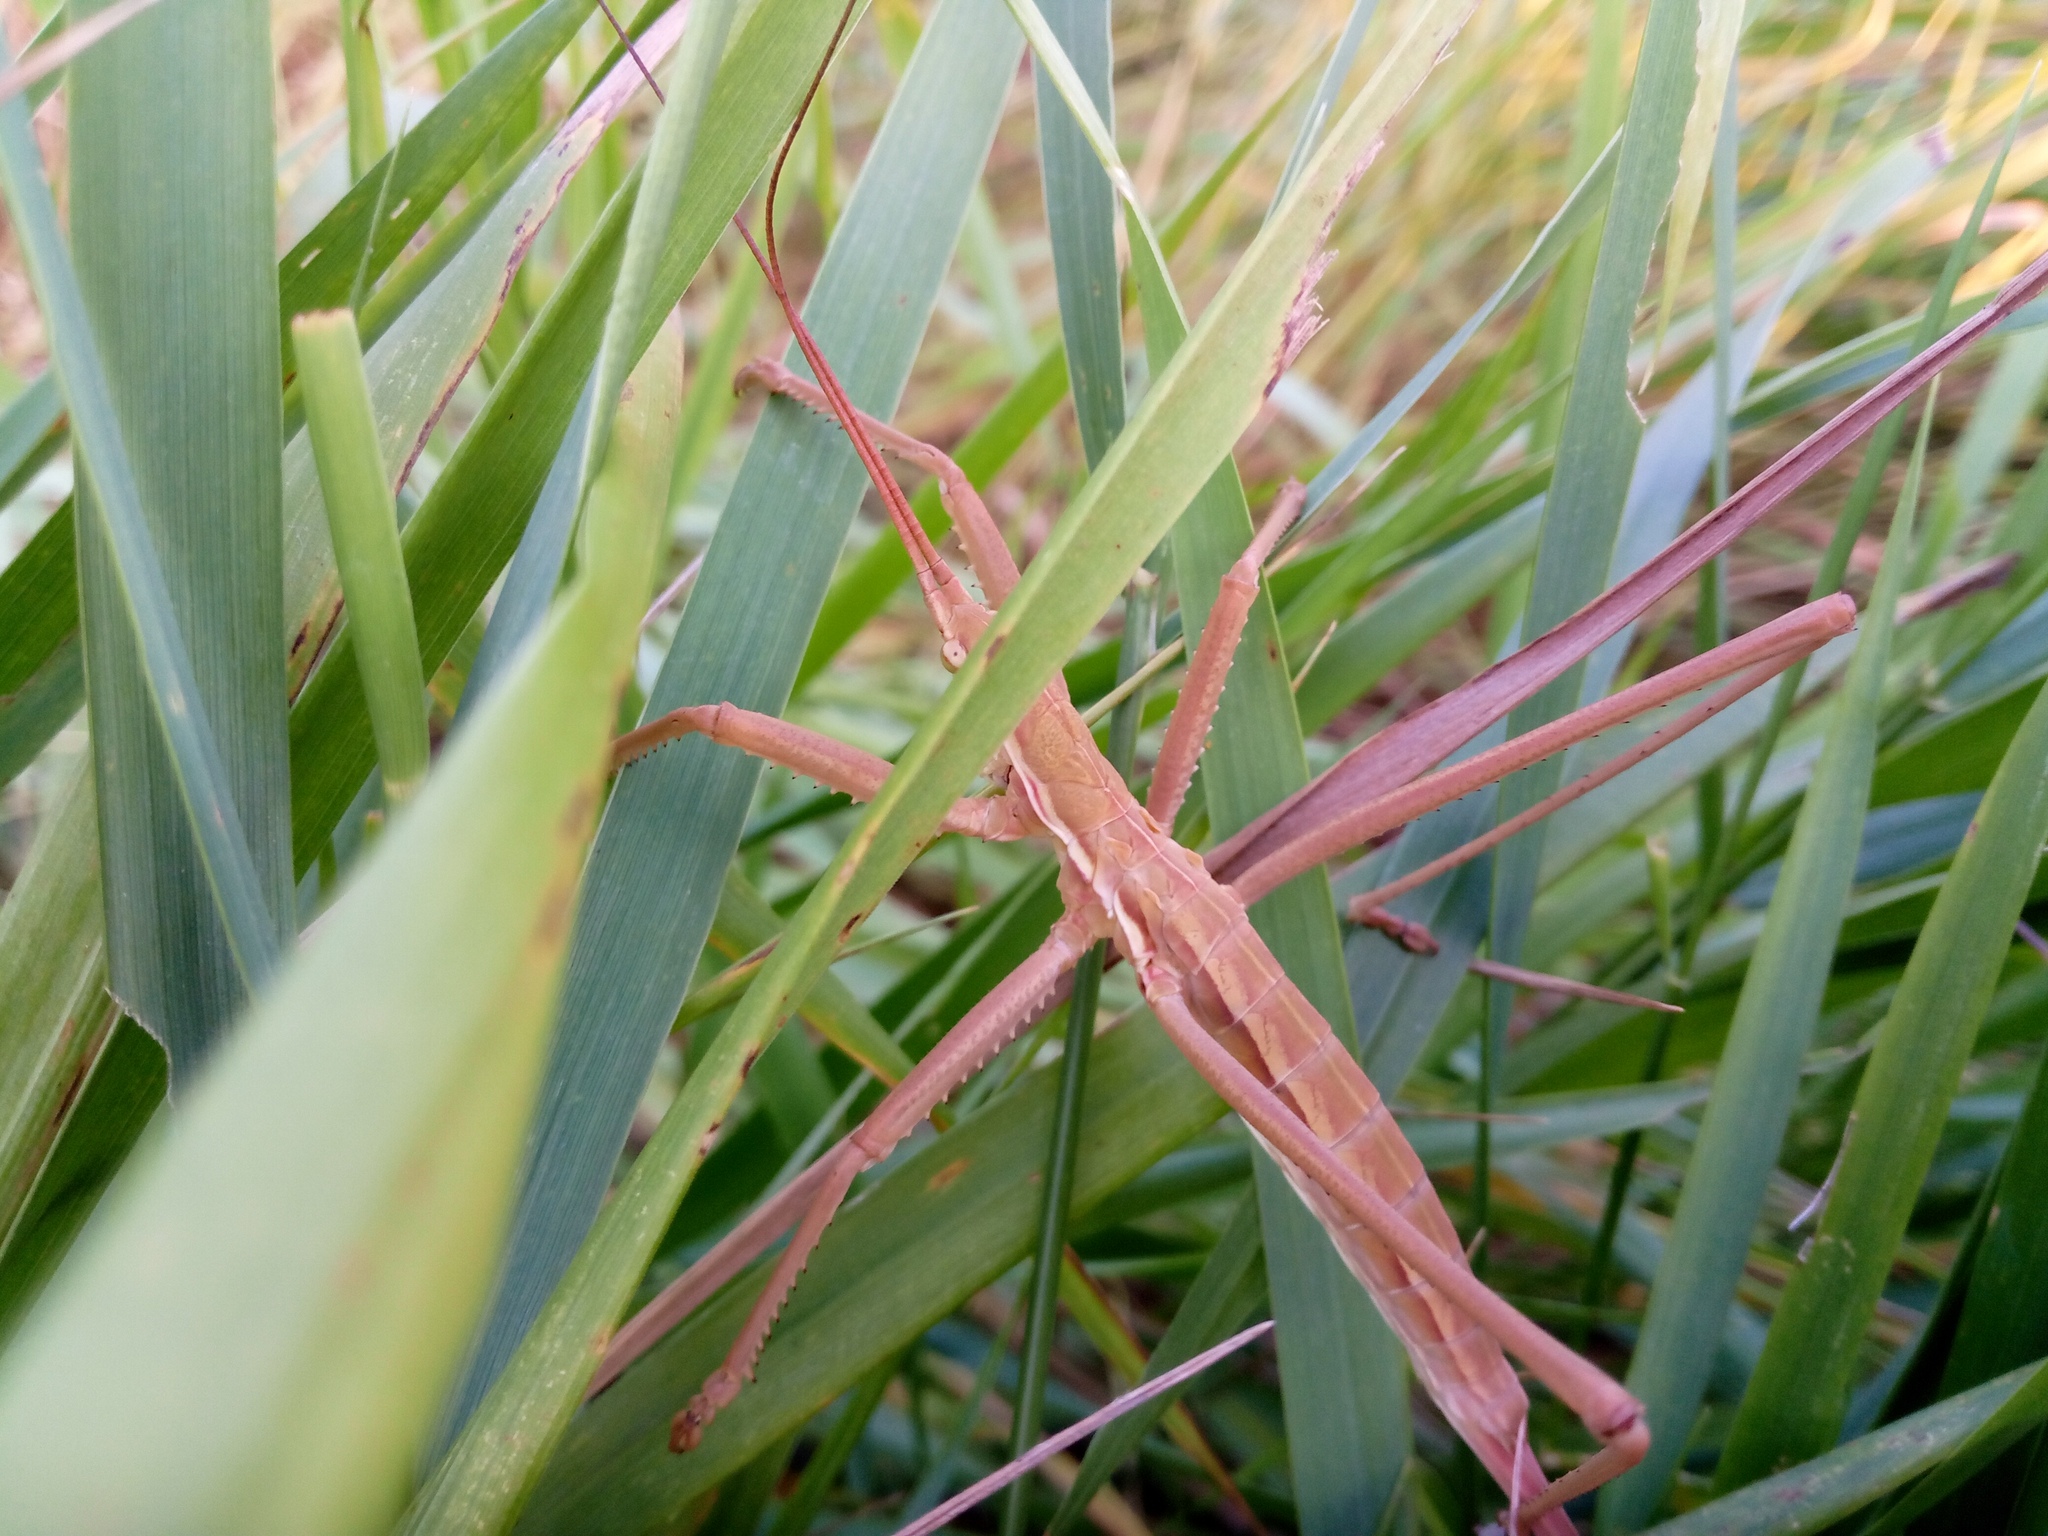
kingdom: Animalia
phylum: Arthropoda
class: Insecta
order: Orthoptera
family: Tettigoniidae
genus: Saga
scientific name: Saga pedo
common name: Common predatory bush-cricket
